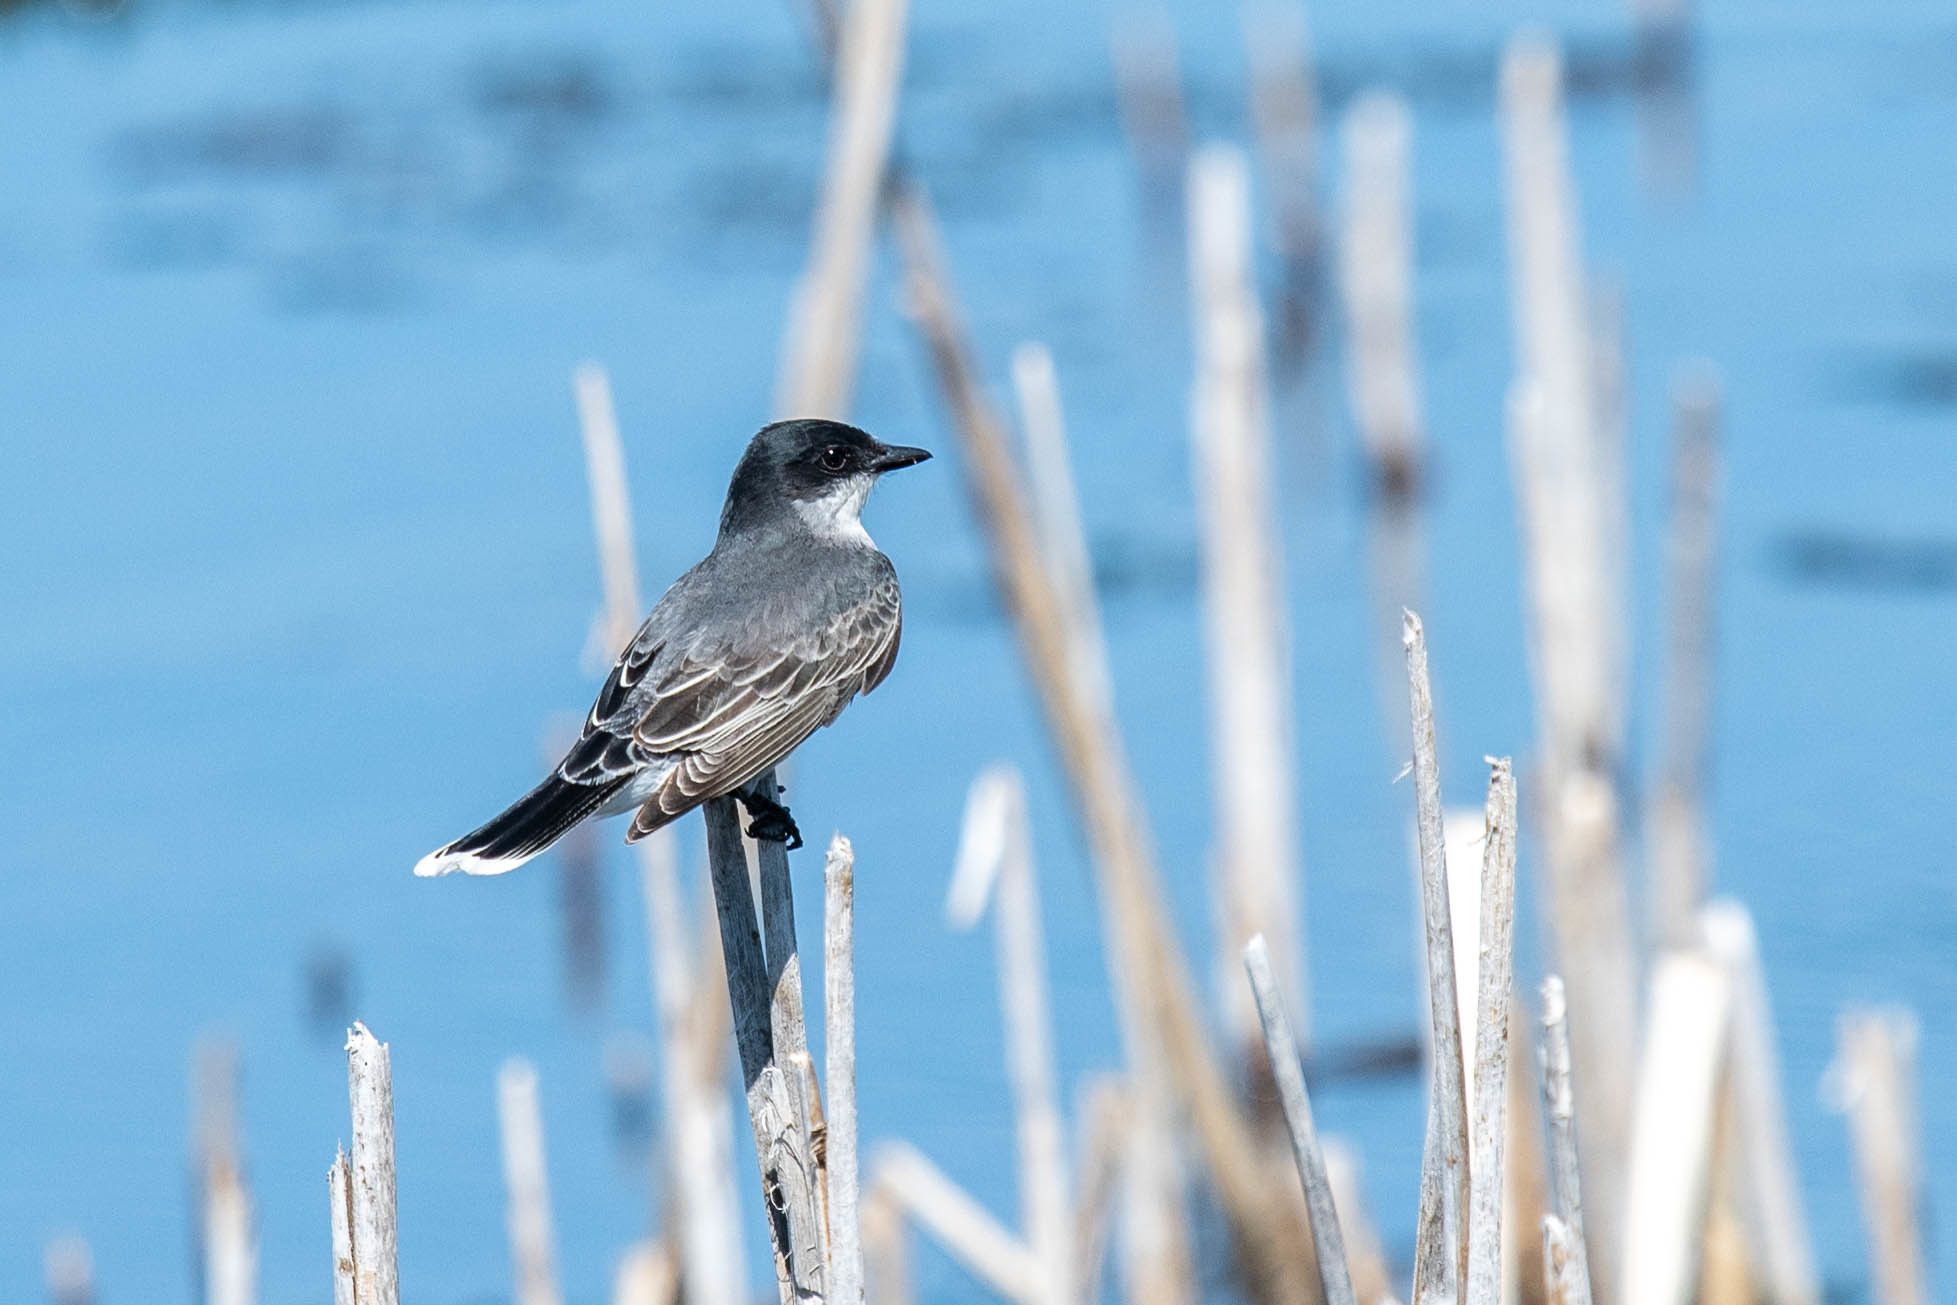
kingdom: Animalia
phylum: Chordata
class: Aves
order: Passeriformes
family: Tyrannidae
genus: Tyrannus
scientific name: Tyrannus tyrannus
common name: Eastern kingbird
